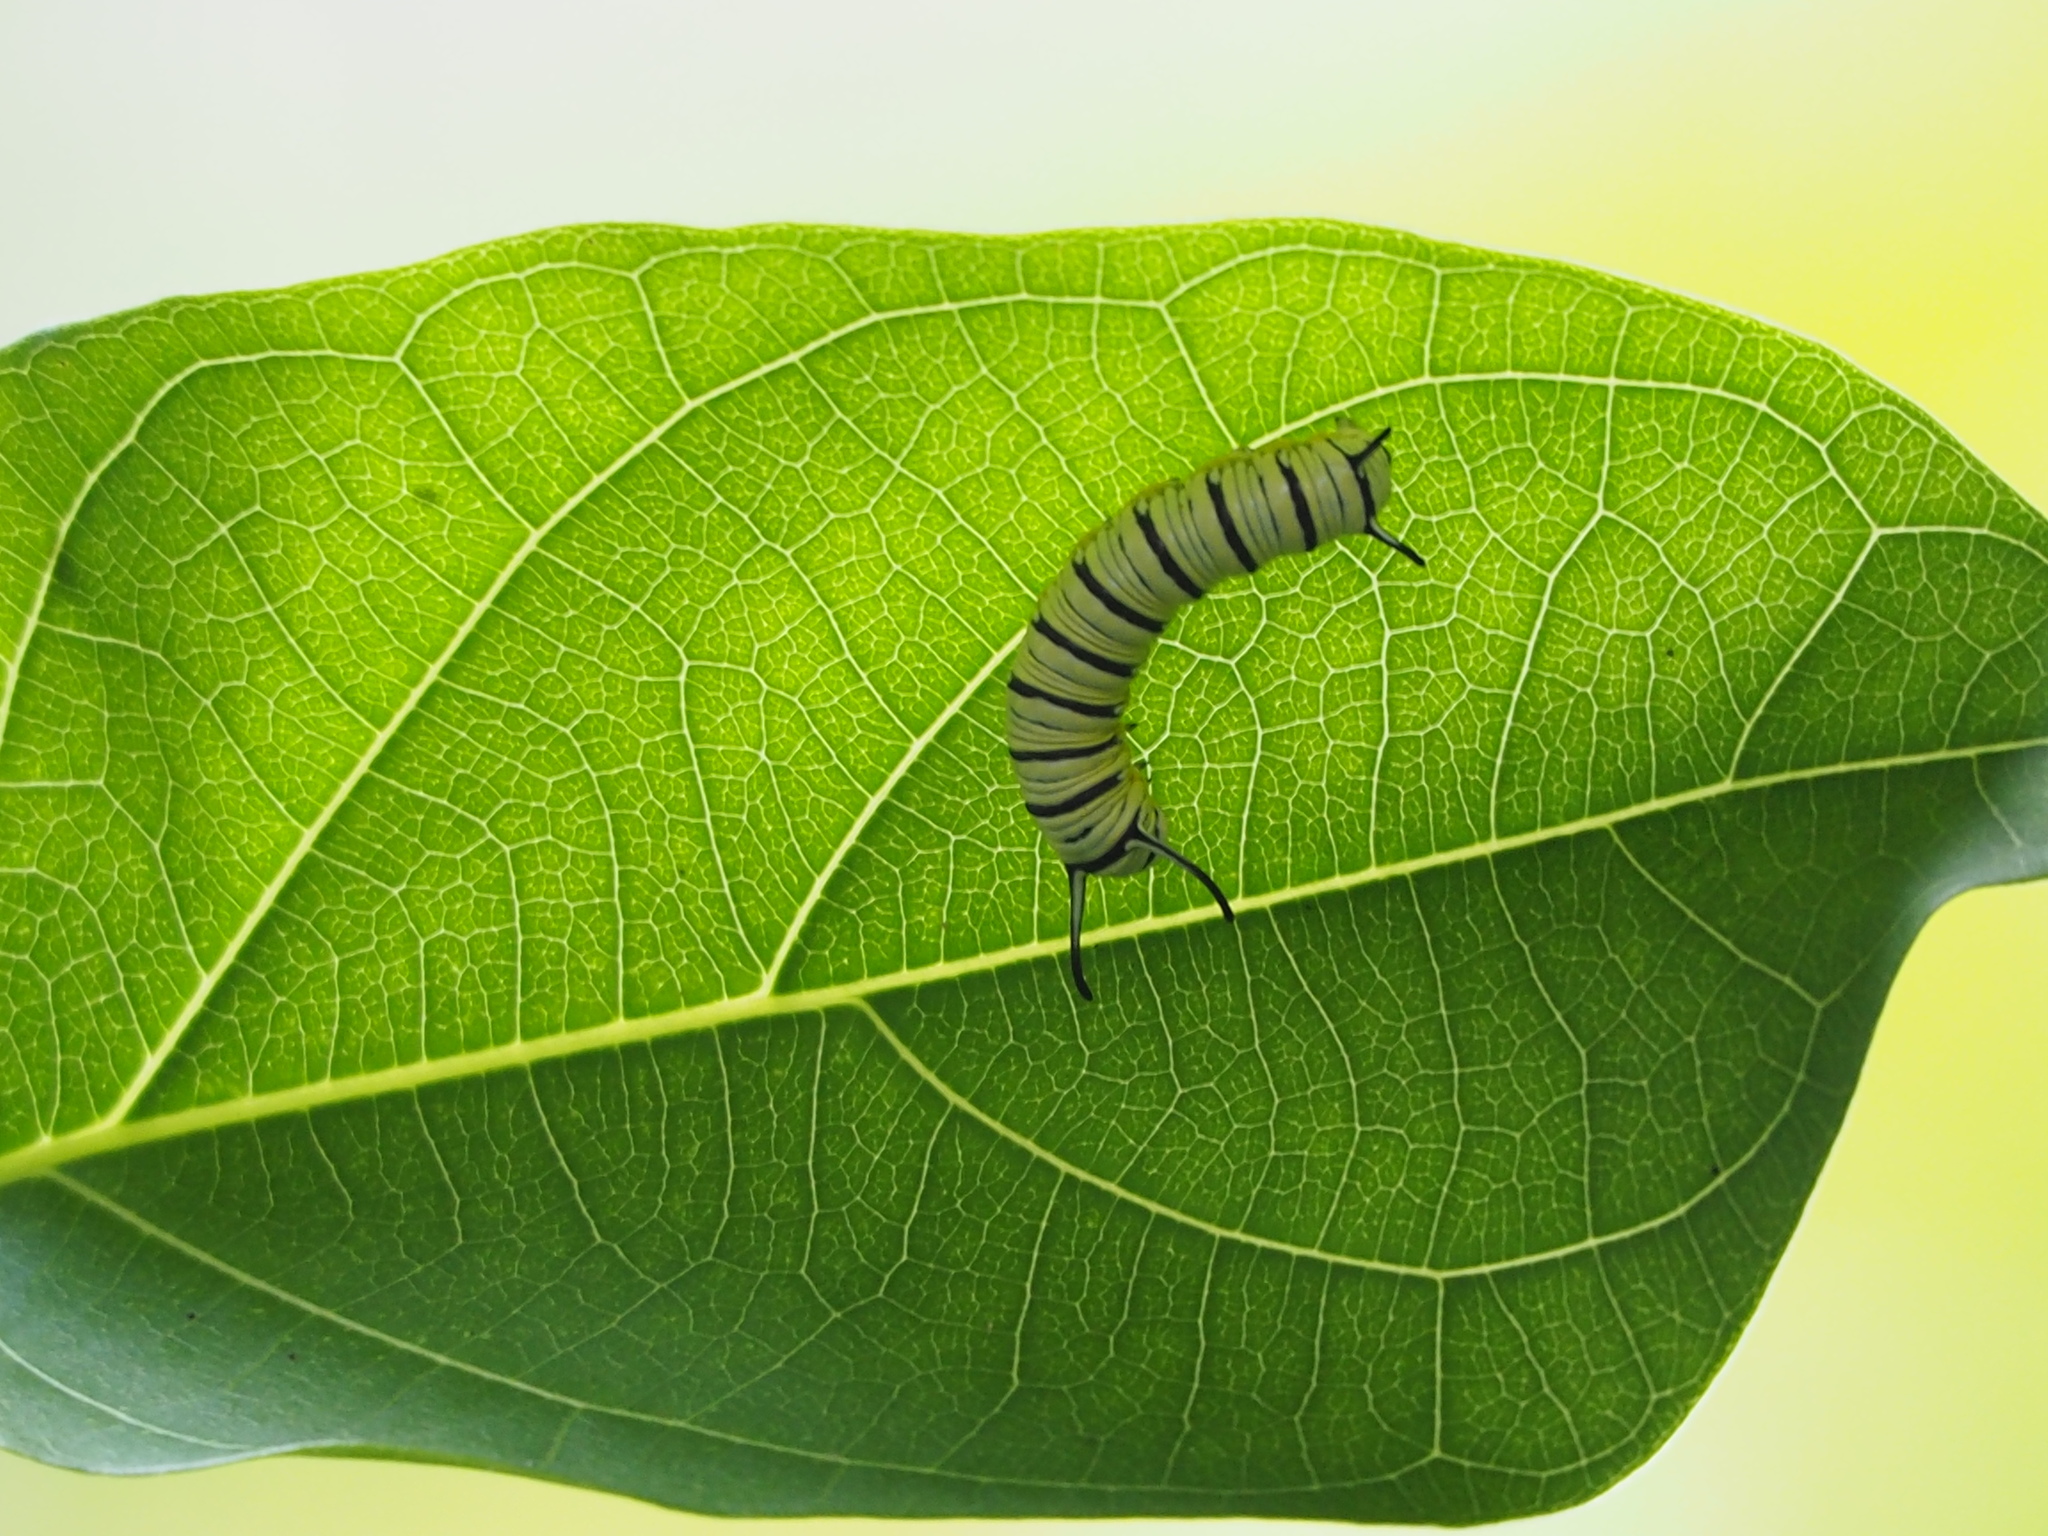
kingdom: Animalia
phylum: Arthropoda
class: Insecta
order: Lepidoptera
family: Nymphalidae
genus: Tirumala
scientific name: Tirumala limniace
